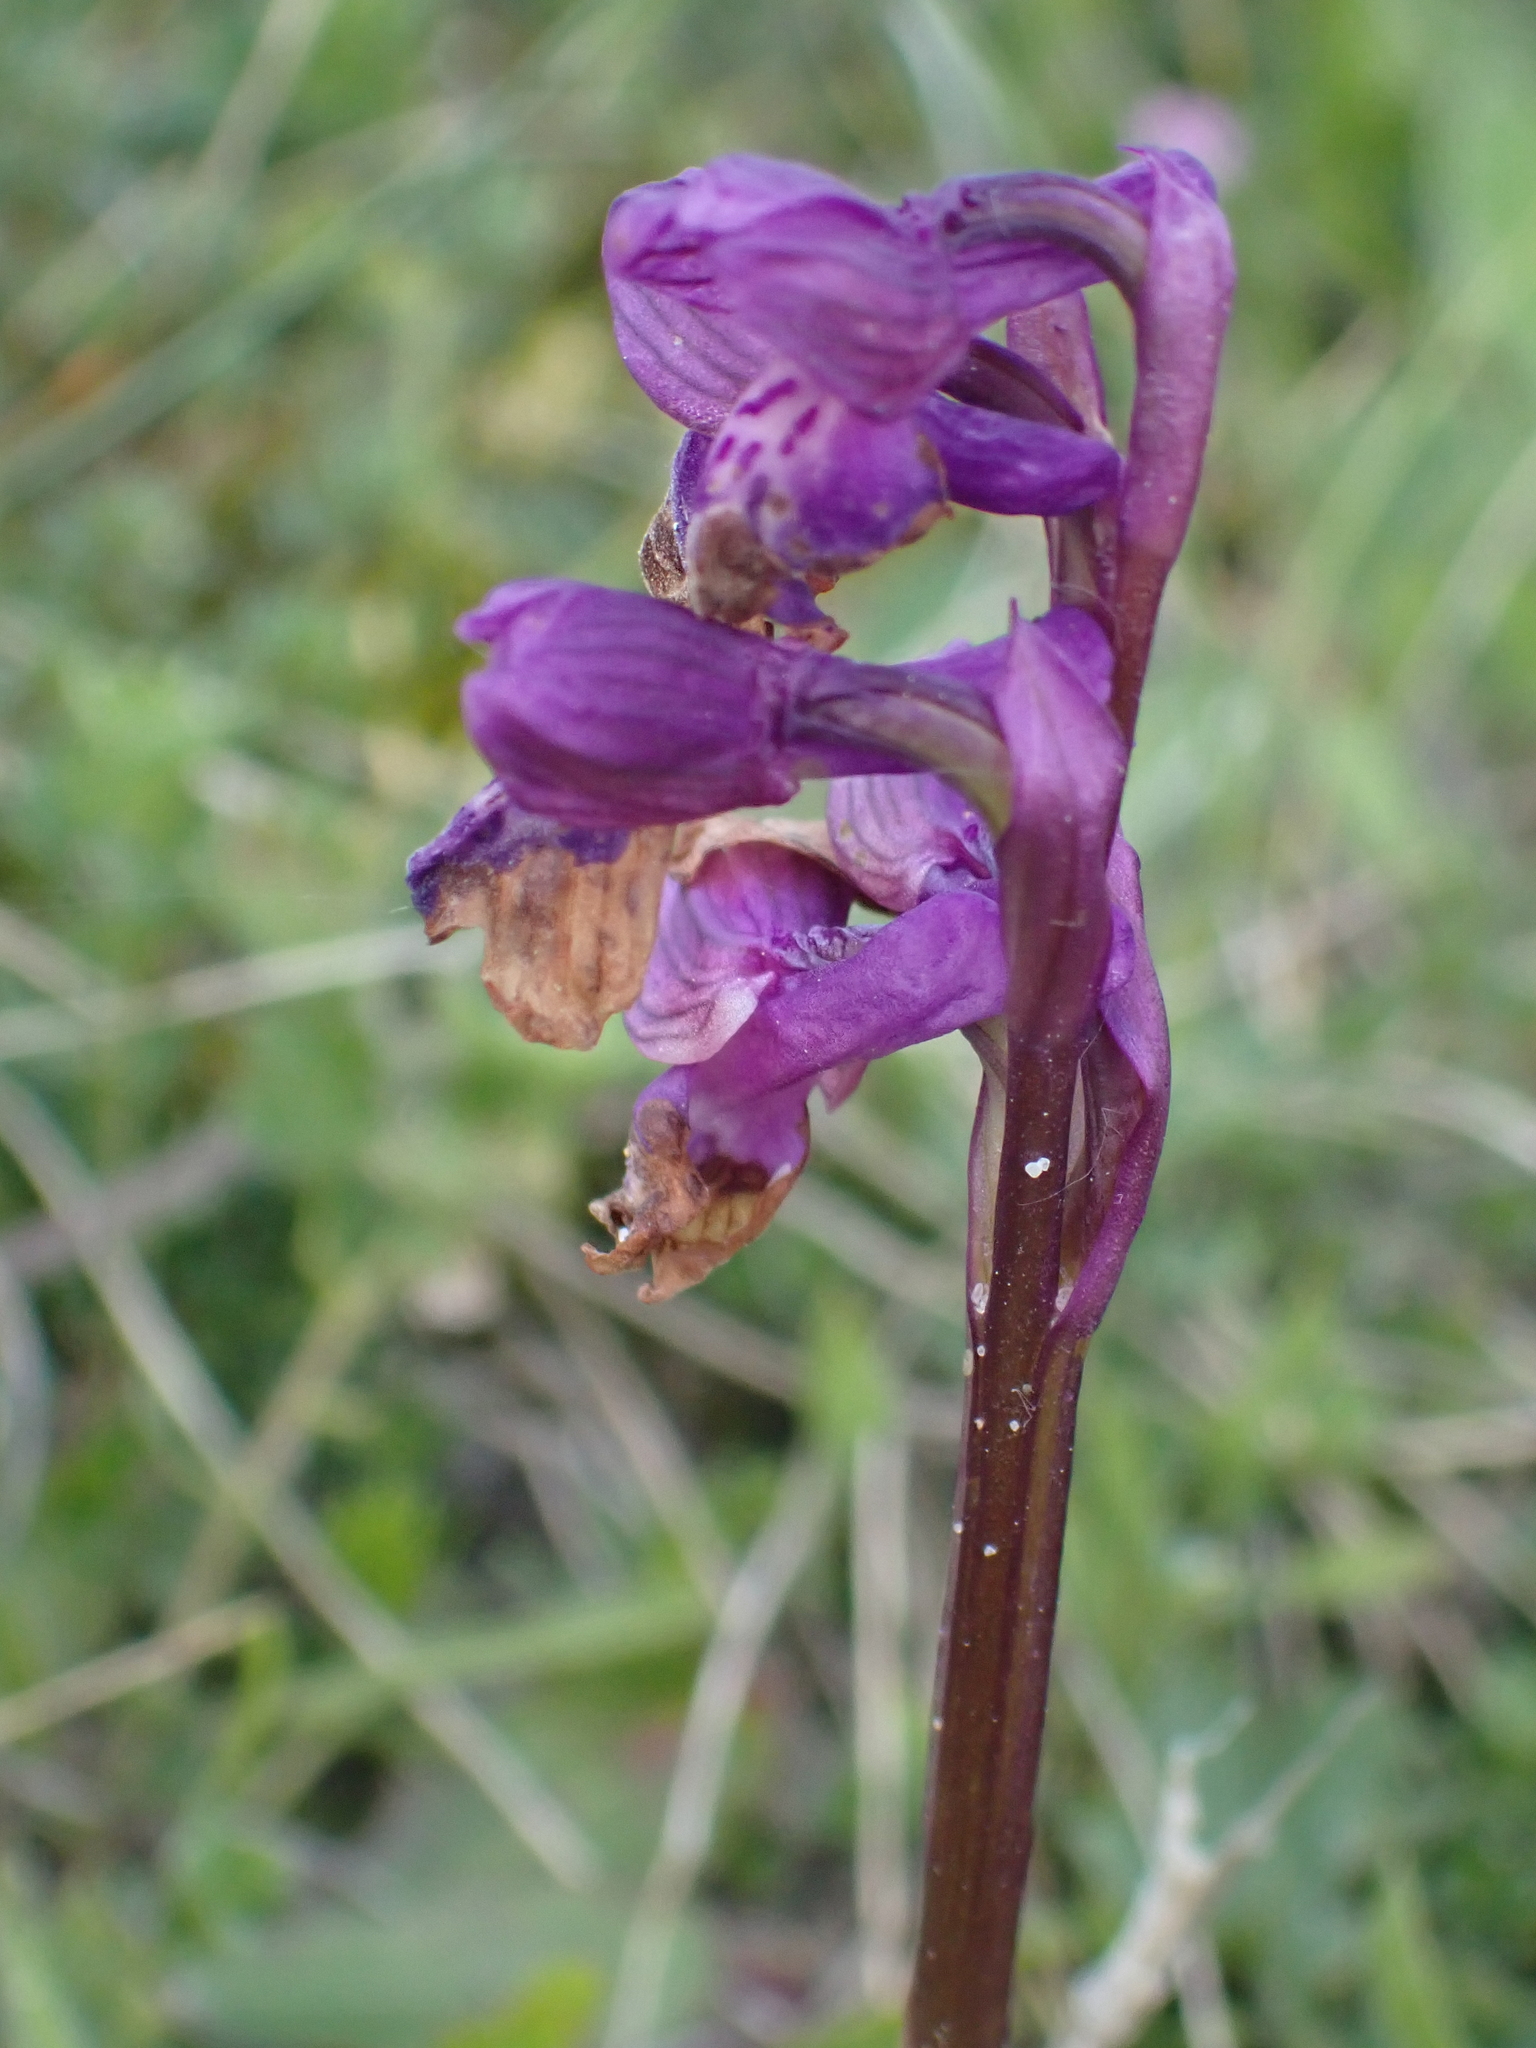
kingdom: Plantae
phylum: Tracheophyta
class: Liliopsida
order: Asparagales
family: Orchidaceae
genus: Anacamptis
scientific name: Anacamptis morio
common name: Green-winged orchid
